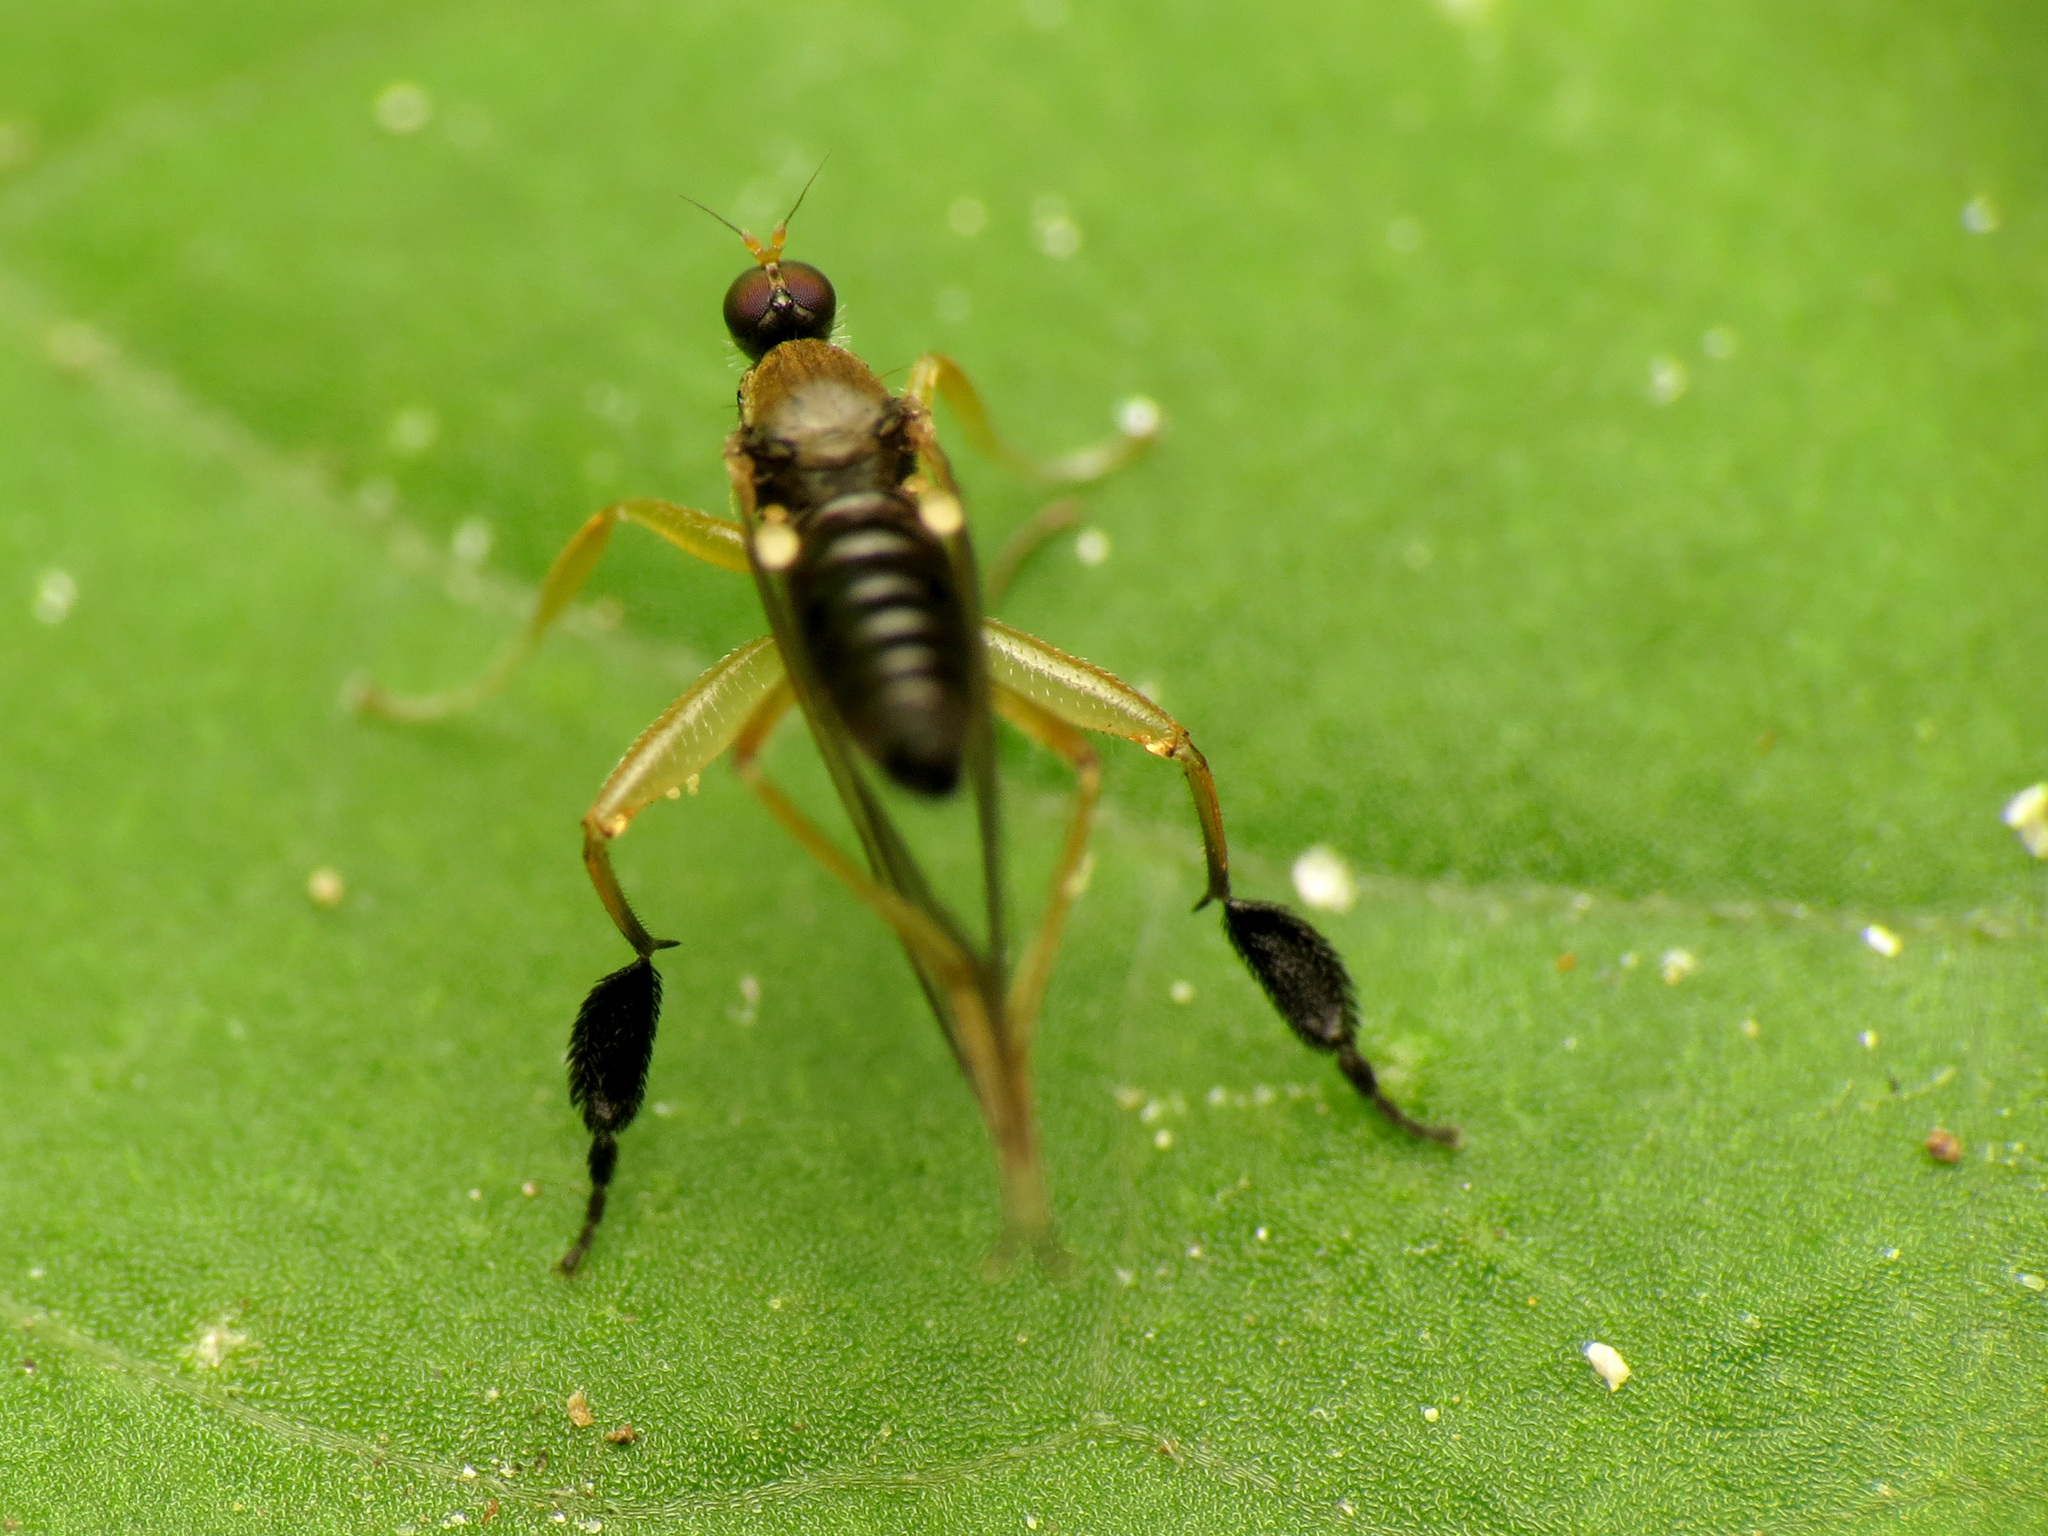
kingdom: Animalia
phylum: Arthropoda
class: Insecta
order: Diptera
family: Hybotidae
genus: Platypalpus
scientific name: Platypalpus discifer
